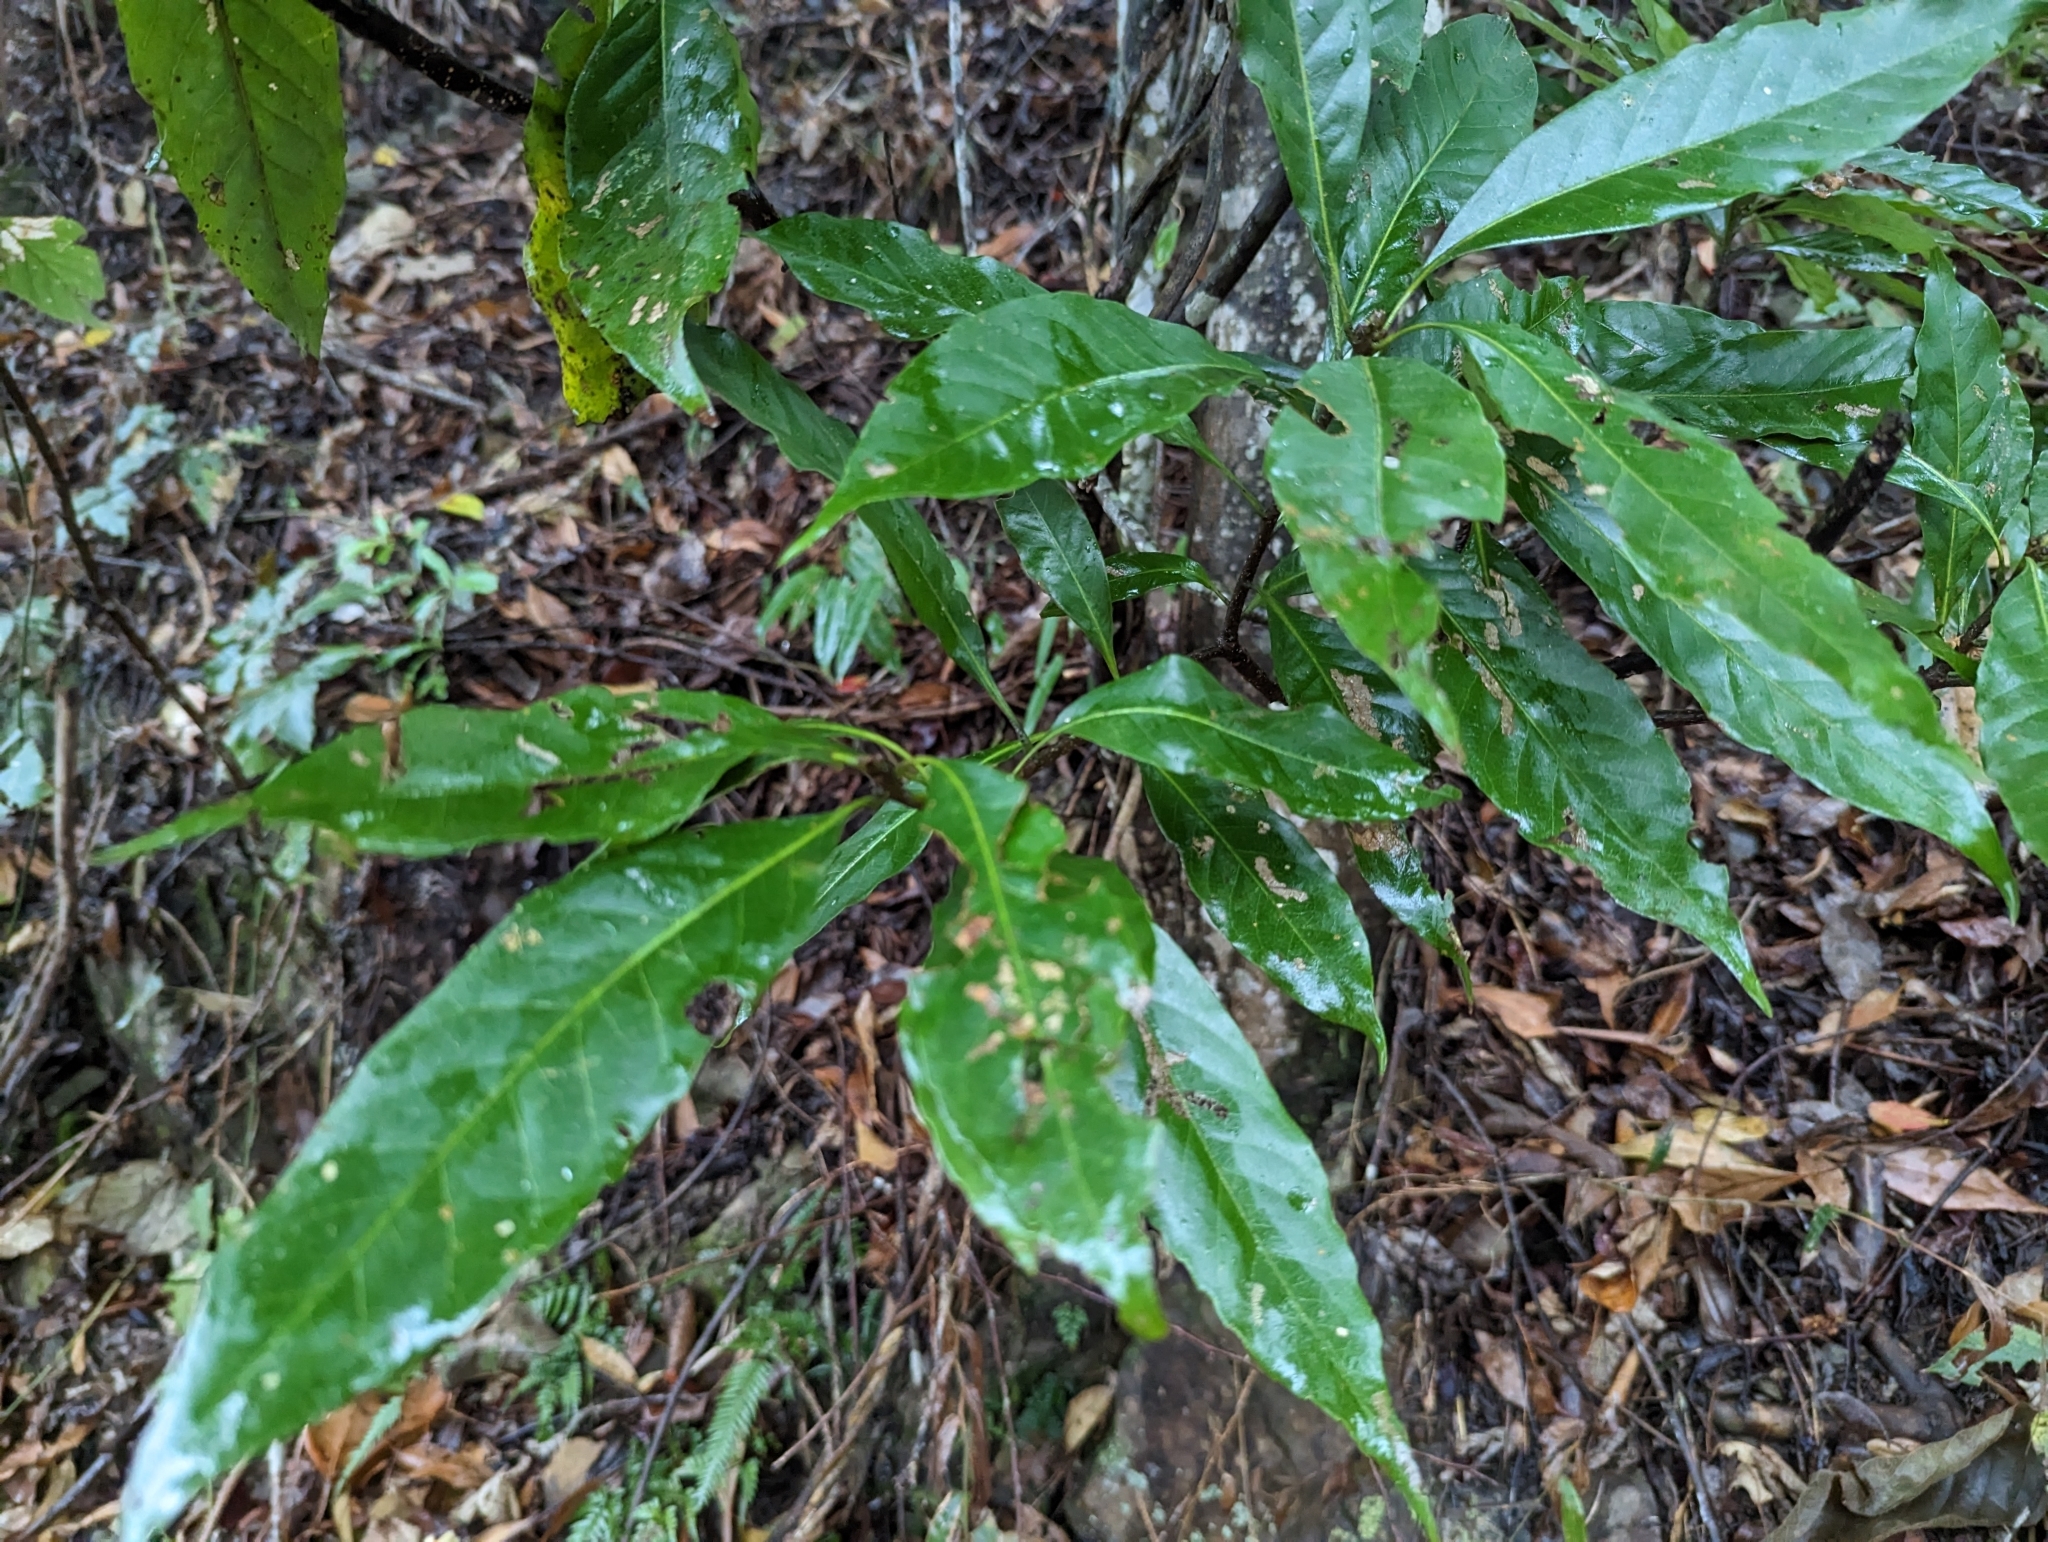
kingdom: Plantae
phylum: Tracheophyta
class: Magnoliopsida
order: Ericales
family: Theaceae
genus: Schima
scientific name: Schima superba
